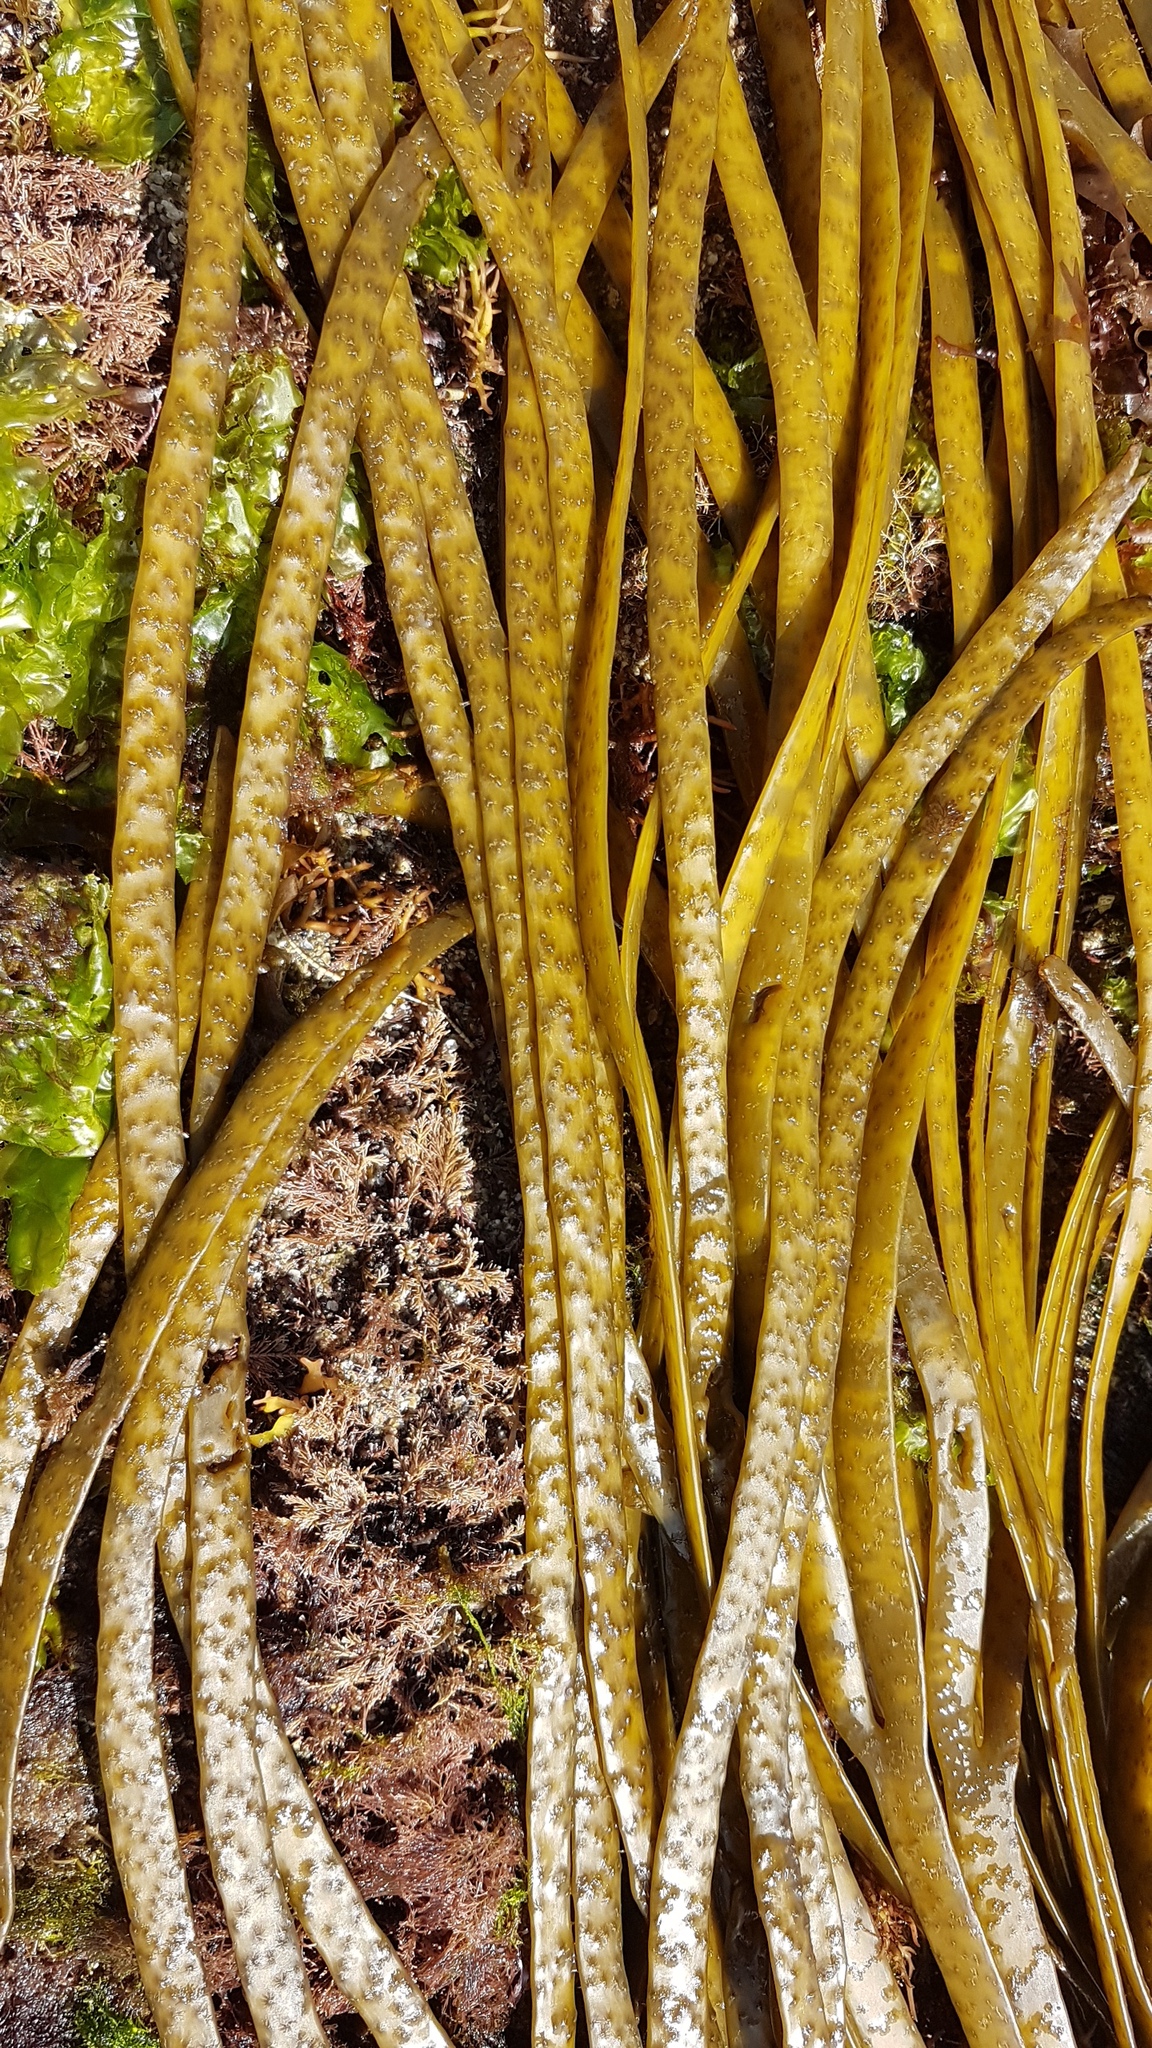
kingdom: Chromista
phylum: Ochrophyta
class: Phaeophyceae
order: Fucales
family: Himanthaliaceae
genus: Himanthalia
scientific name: Himanthalia elongata
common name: Sea-thong
